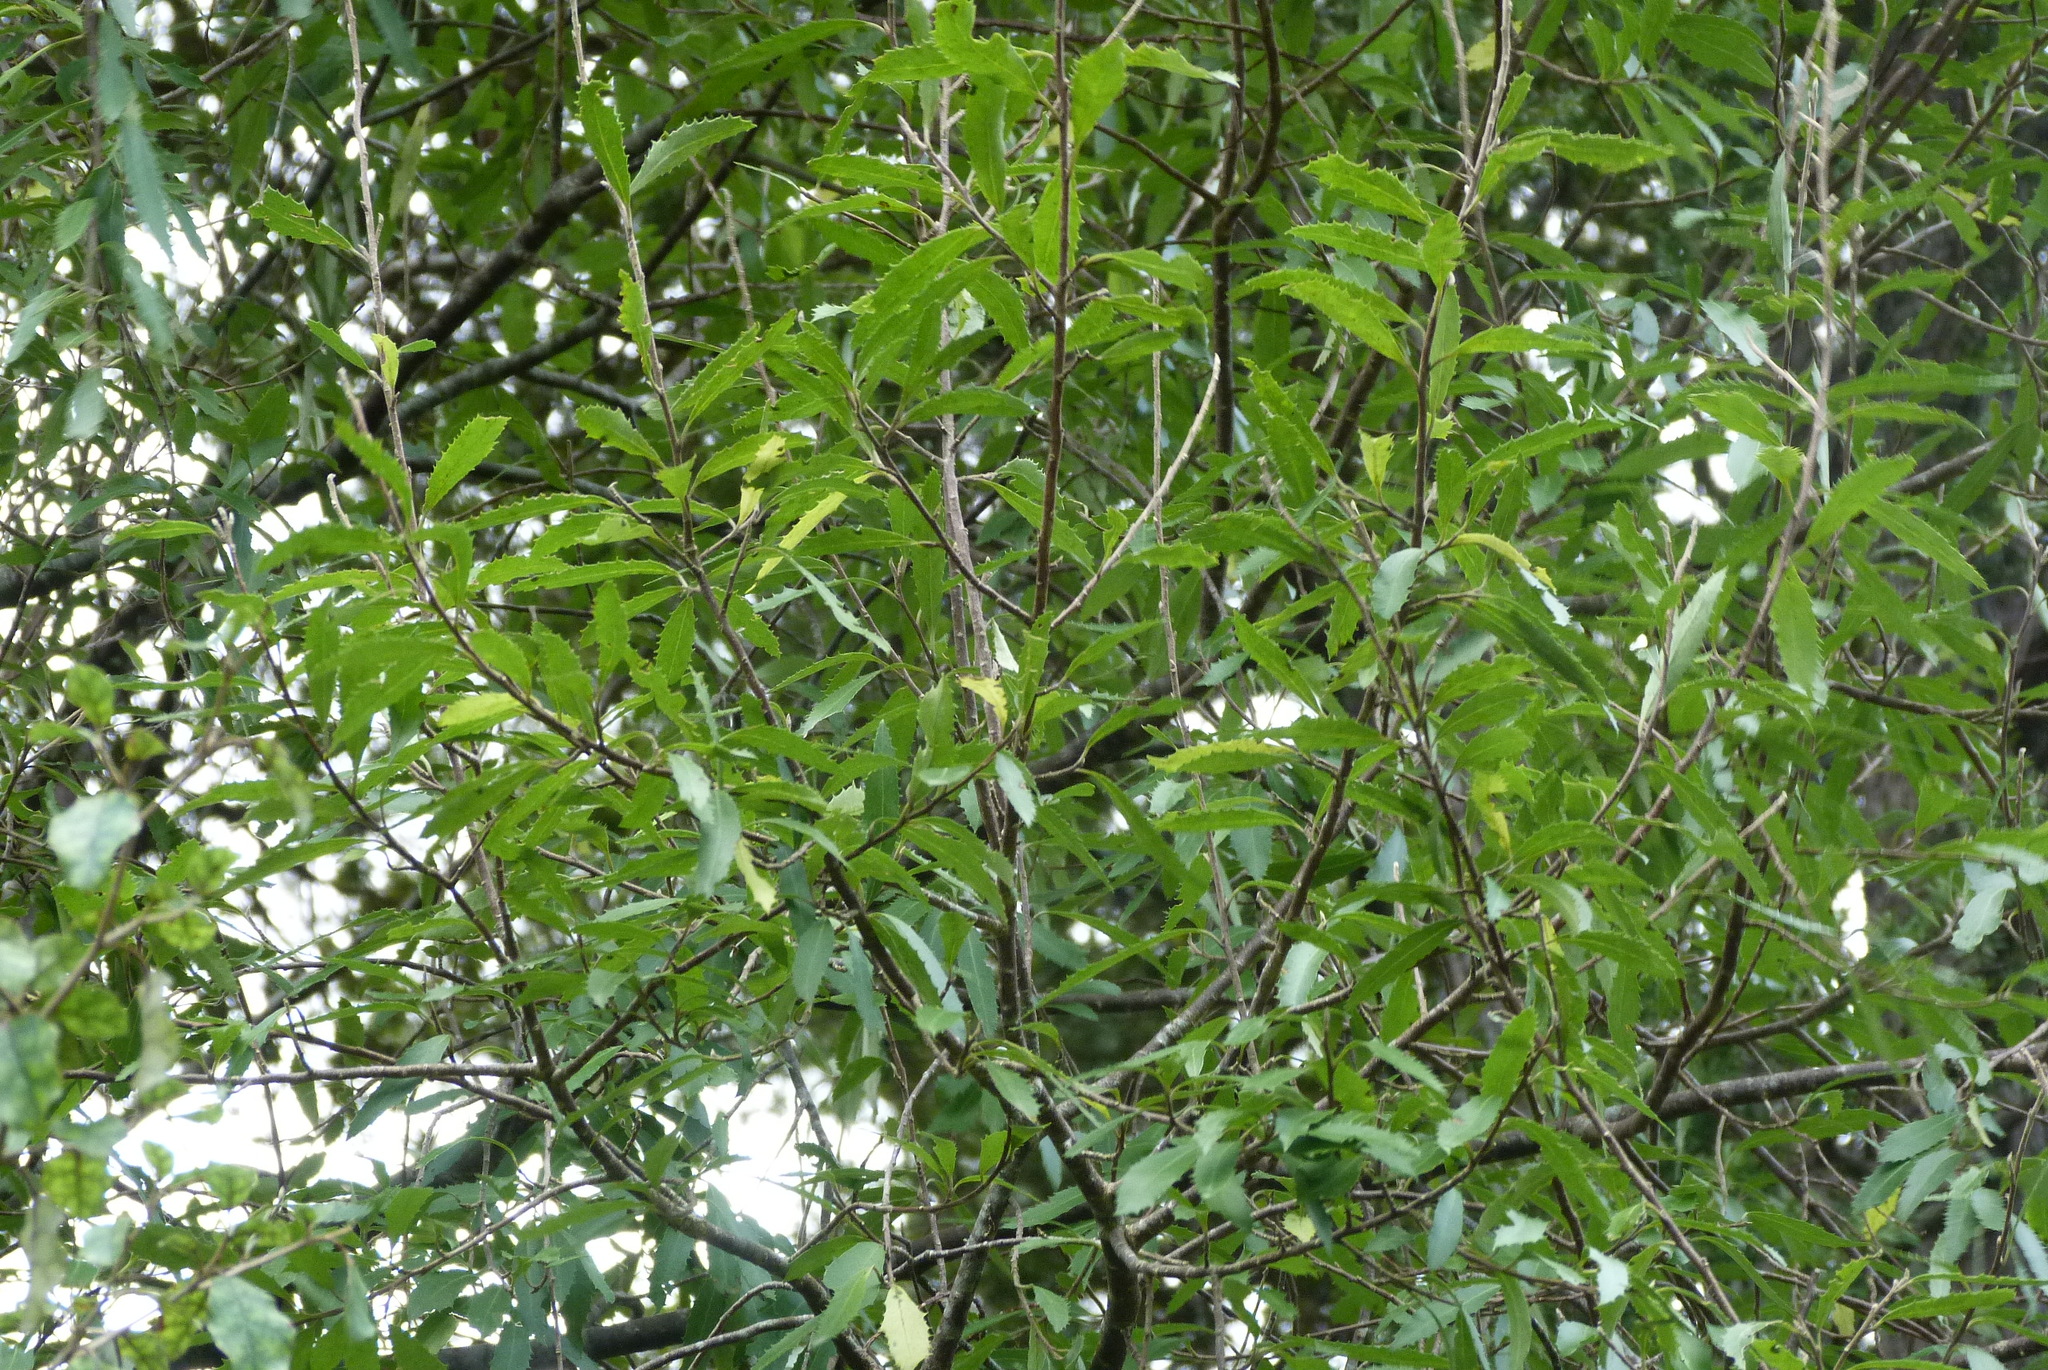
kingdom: Plantae
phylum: Tracheophyta
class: Magnoliopsida
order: Malvales
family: Malvaceae
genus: Hoheria
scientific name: Hoheria angustifolia
